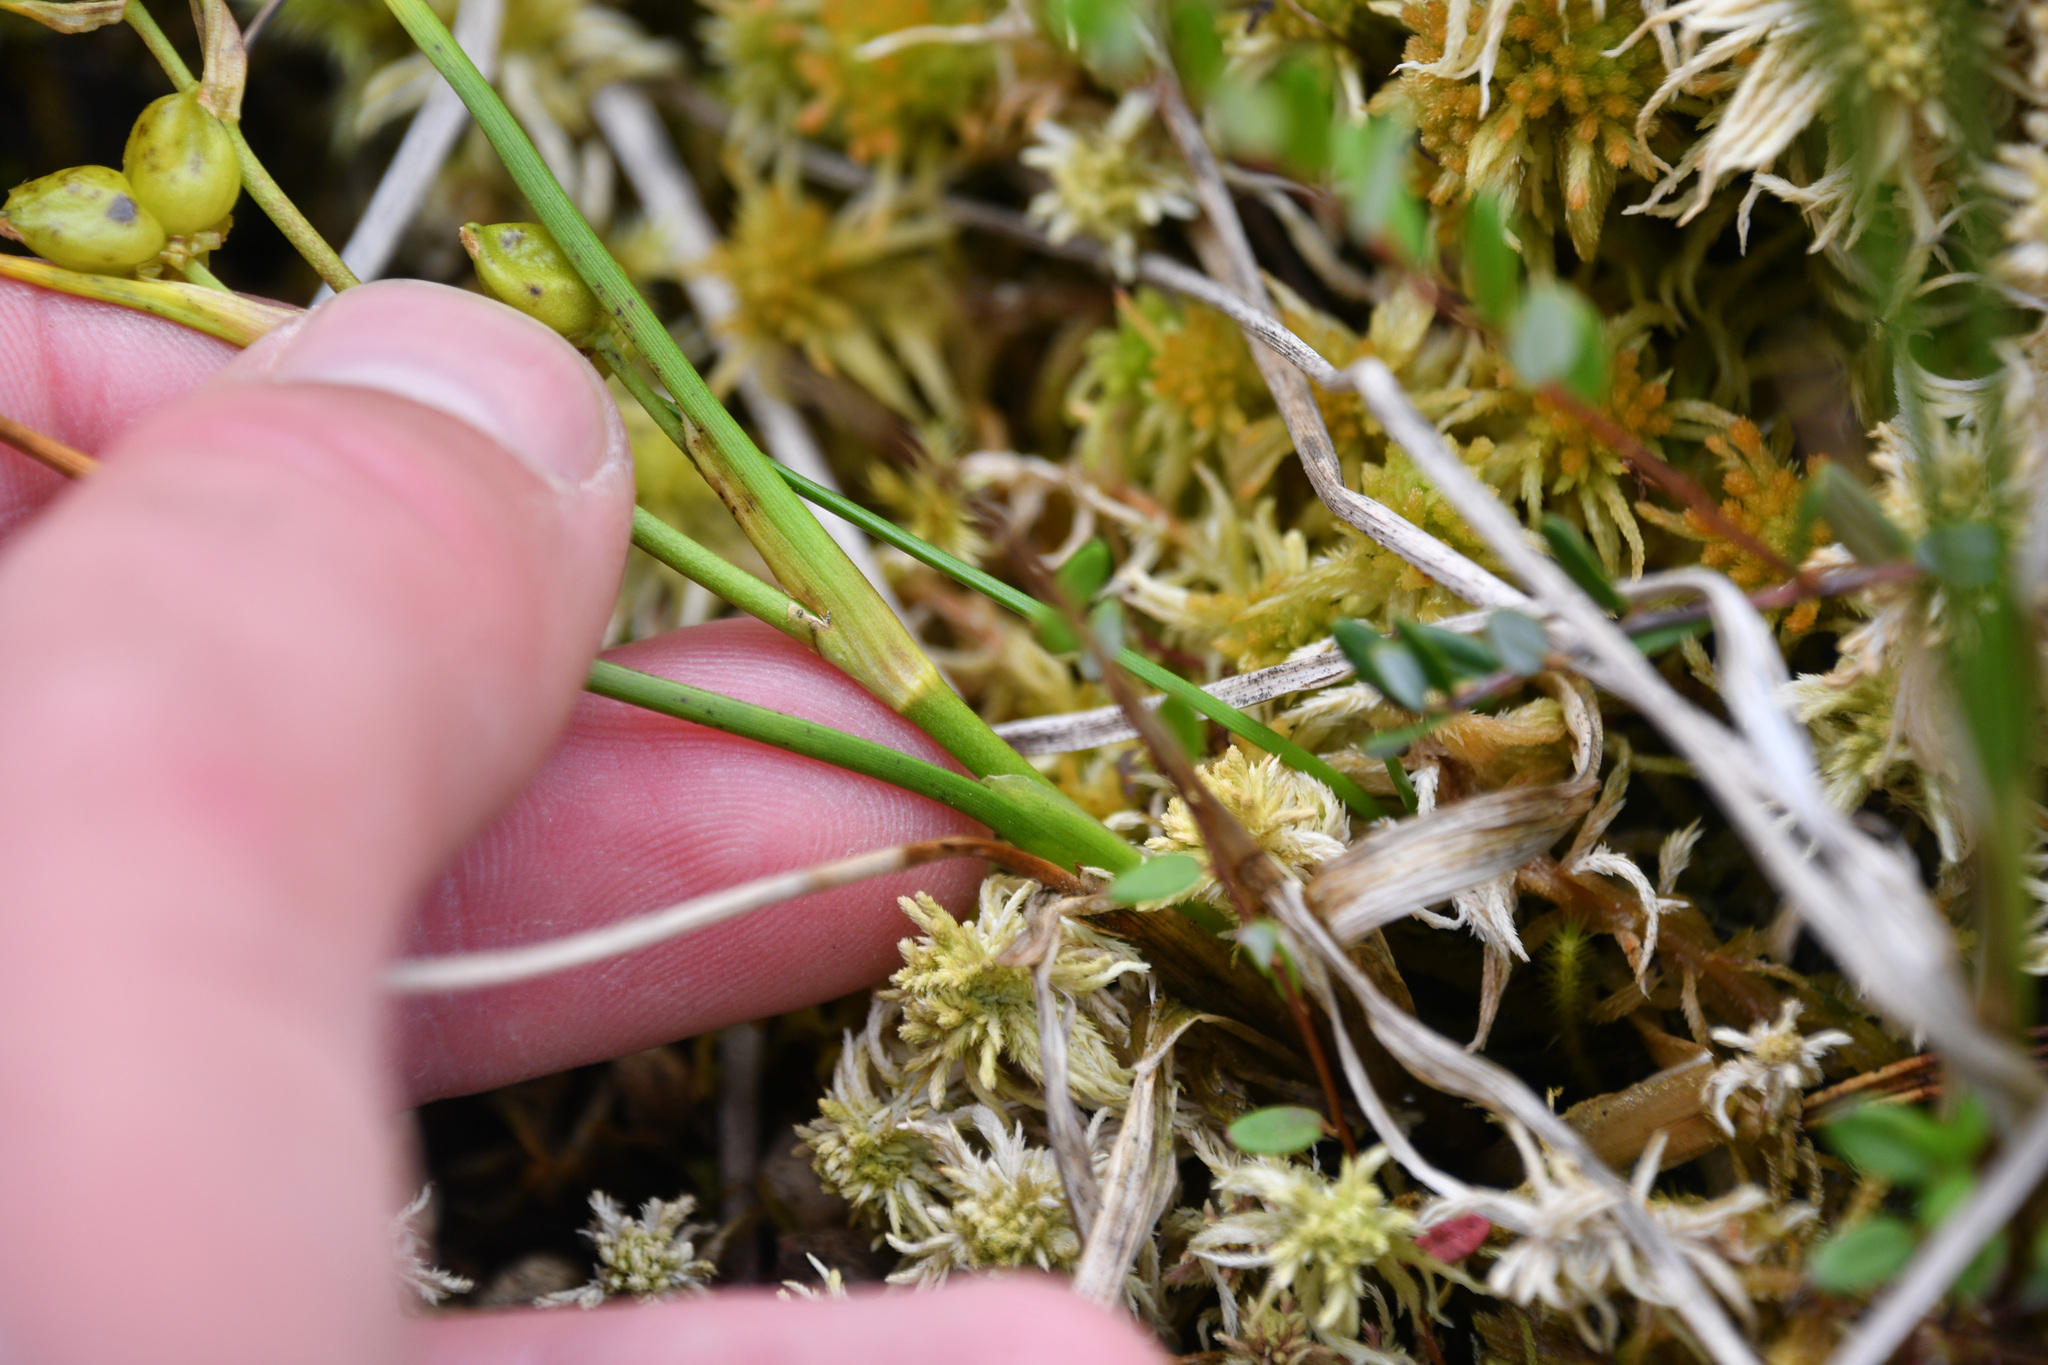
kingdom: Plantae
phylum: Tracheophyta
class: Liliopsida
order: Alismatales
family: Scheuchzeriaceae
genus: Scheuchzeria
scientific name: Scheuchzeria palustris
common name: Rannoch-rush
